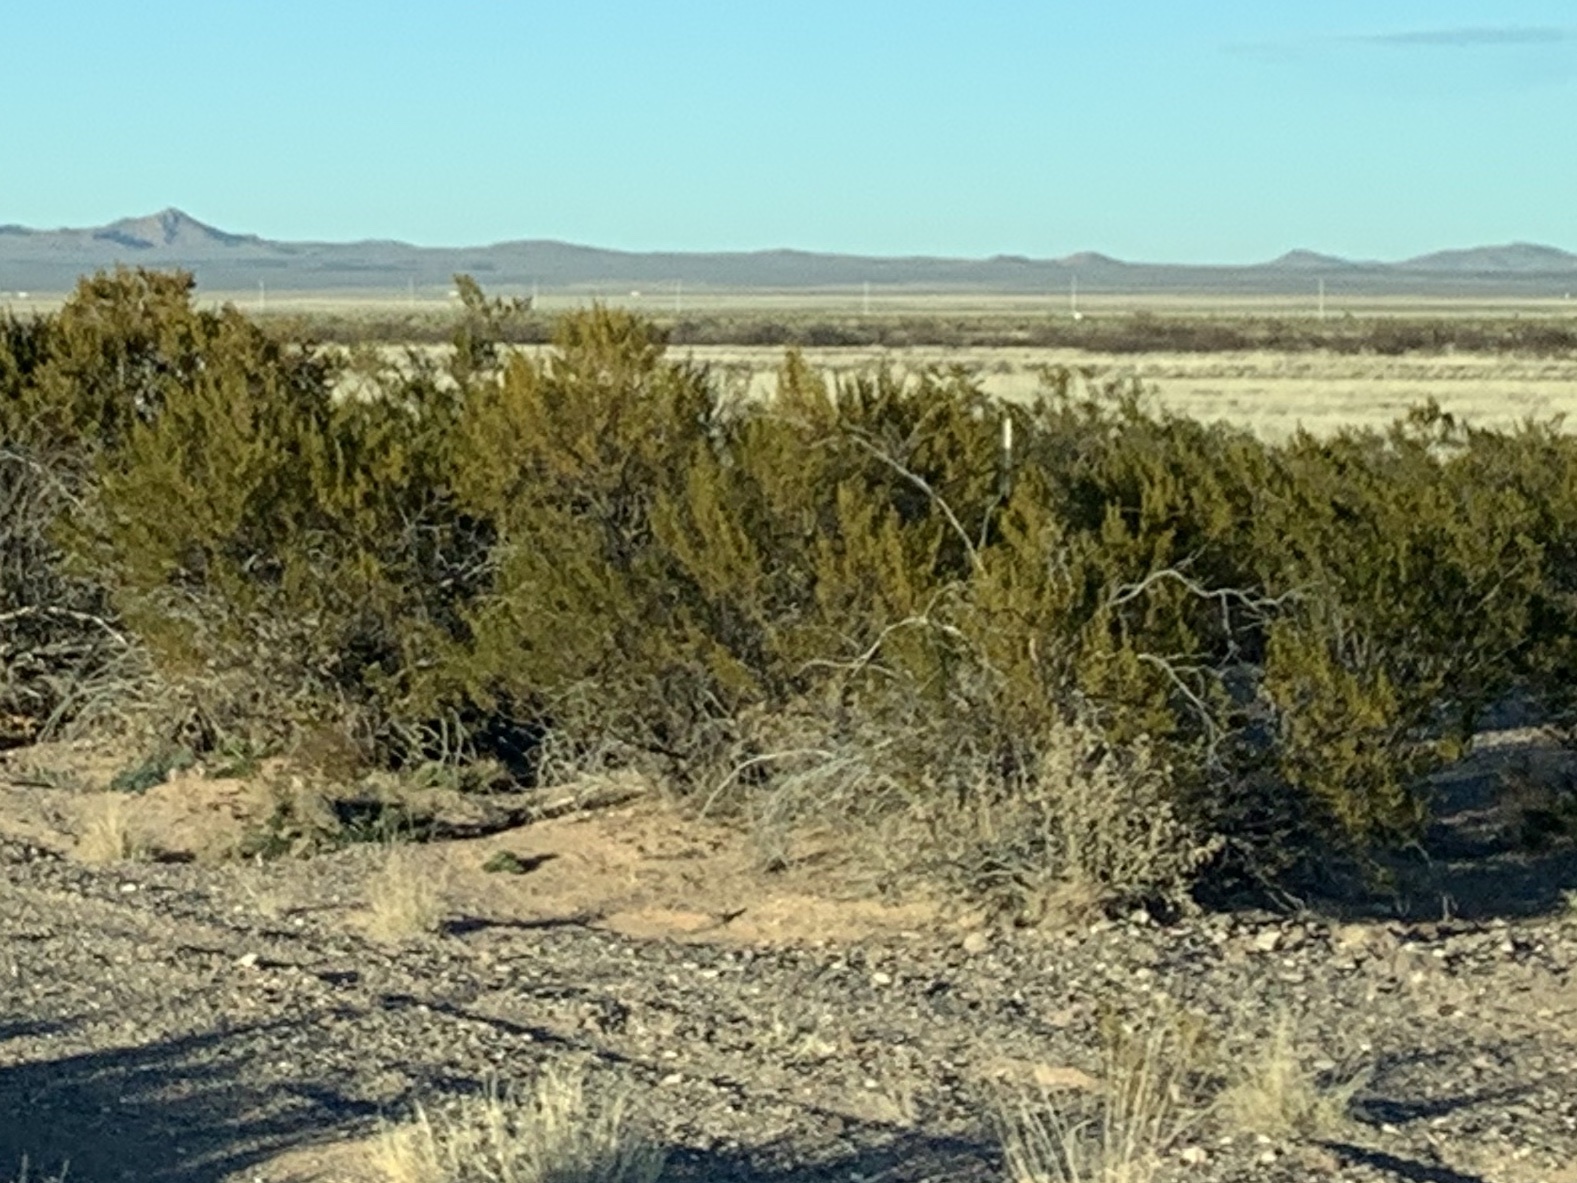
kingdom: Plantae
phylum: Tracheophyta
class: Magnoliopsida
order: Zygophyllales
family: Zygophyllaceae
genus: Larrea
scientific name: Larrea tridentata
